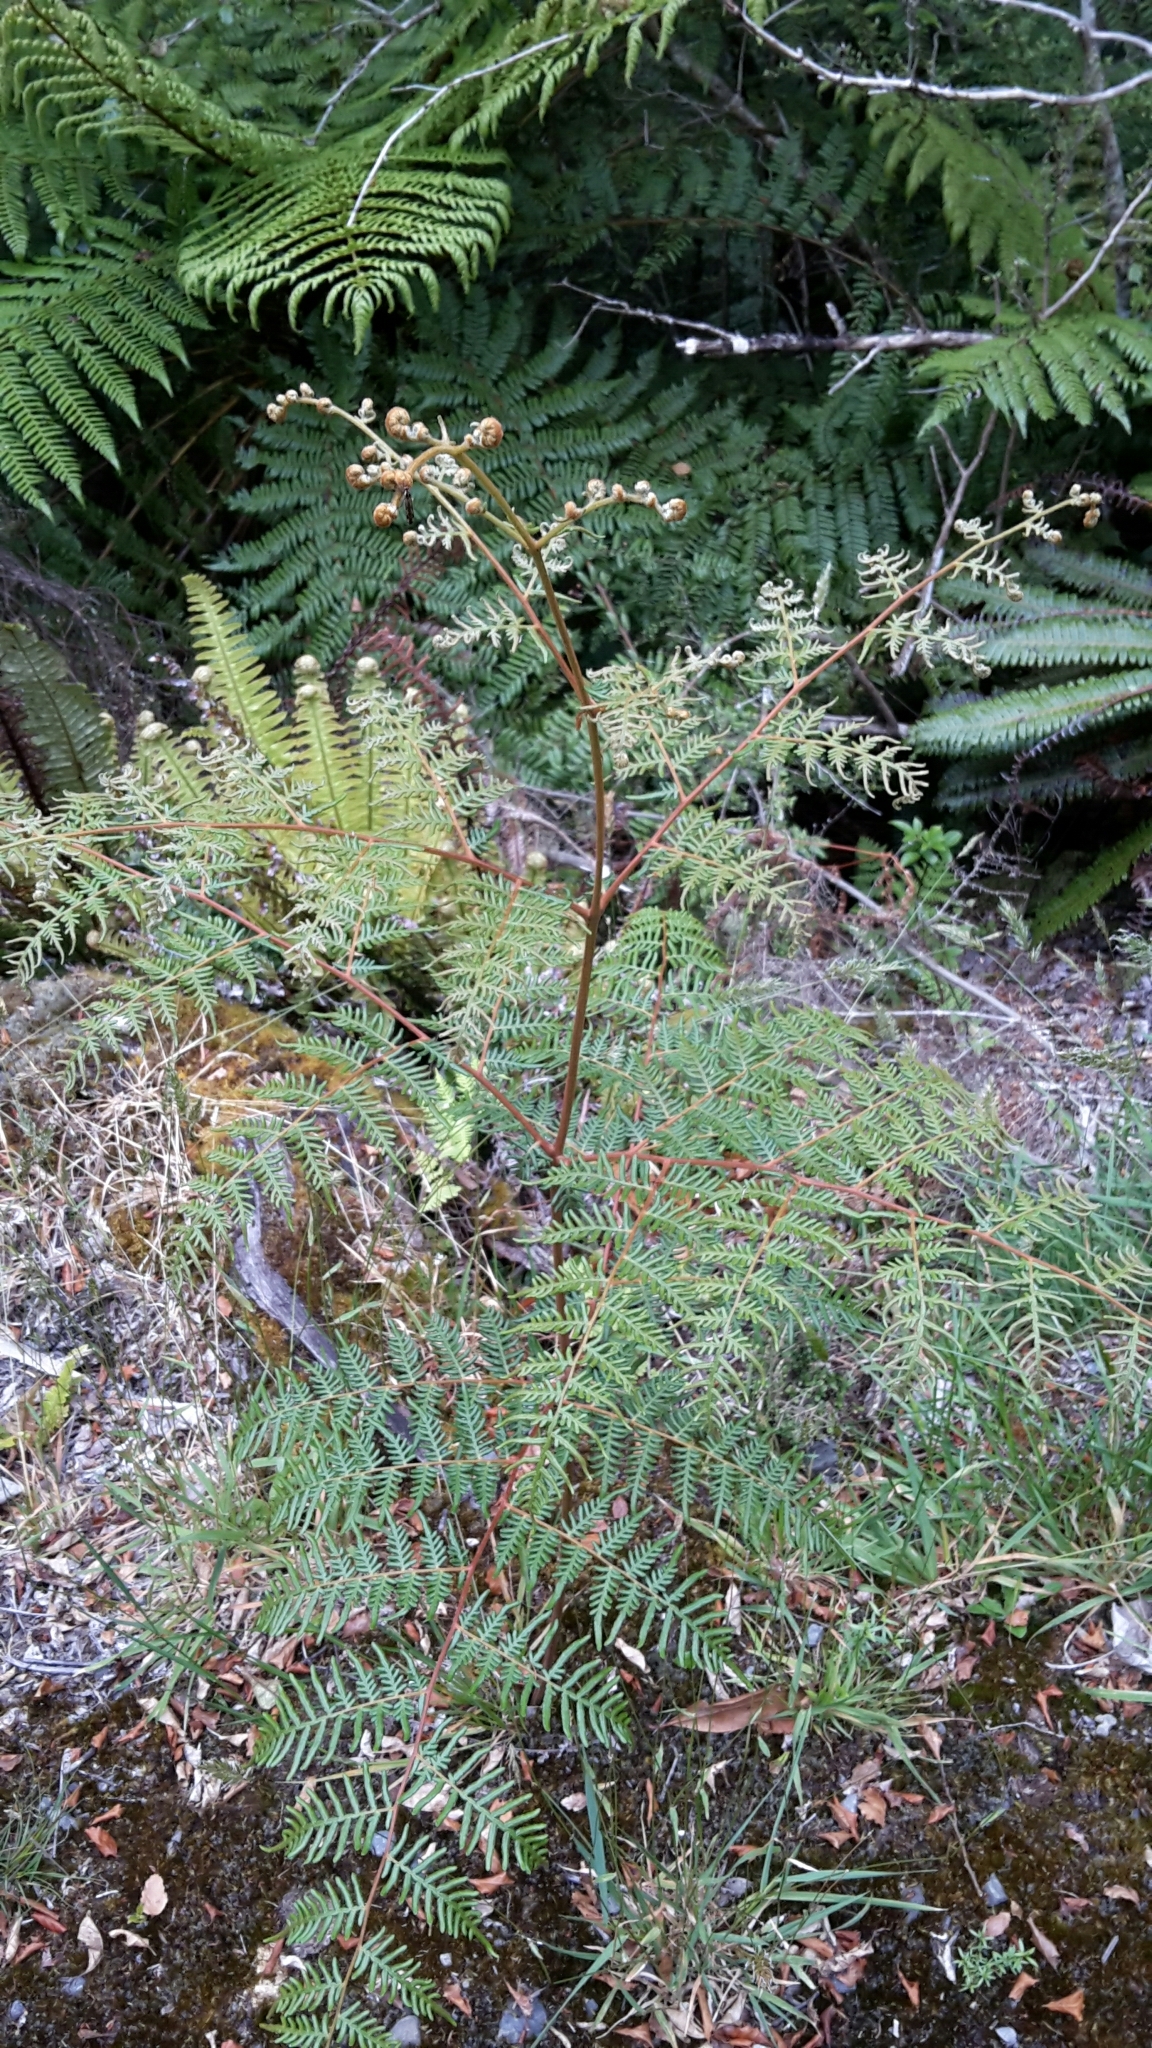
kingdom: Plantae
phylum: Tracheophyta
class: Polypodiopsida
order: Polypodiales
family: Dennstaedtiaceae
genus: Pteridium
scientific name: Pteridium esculentum
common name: Bracken fern
